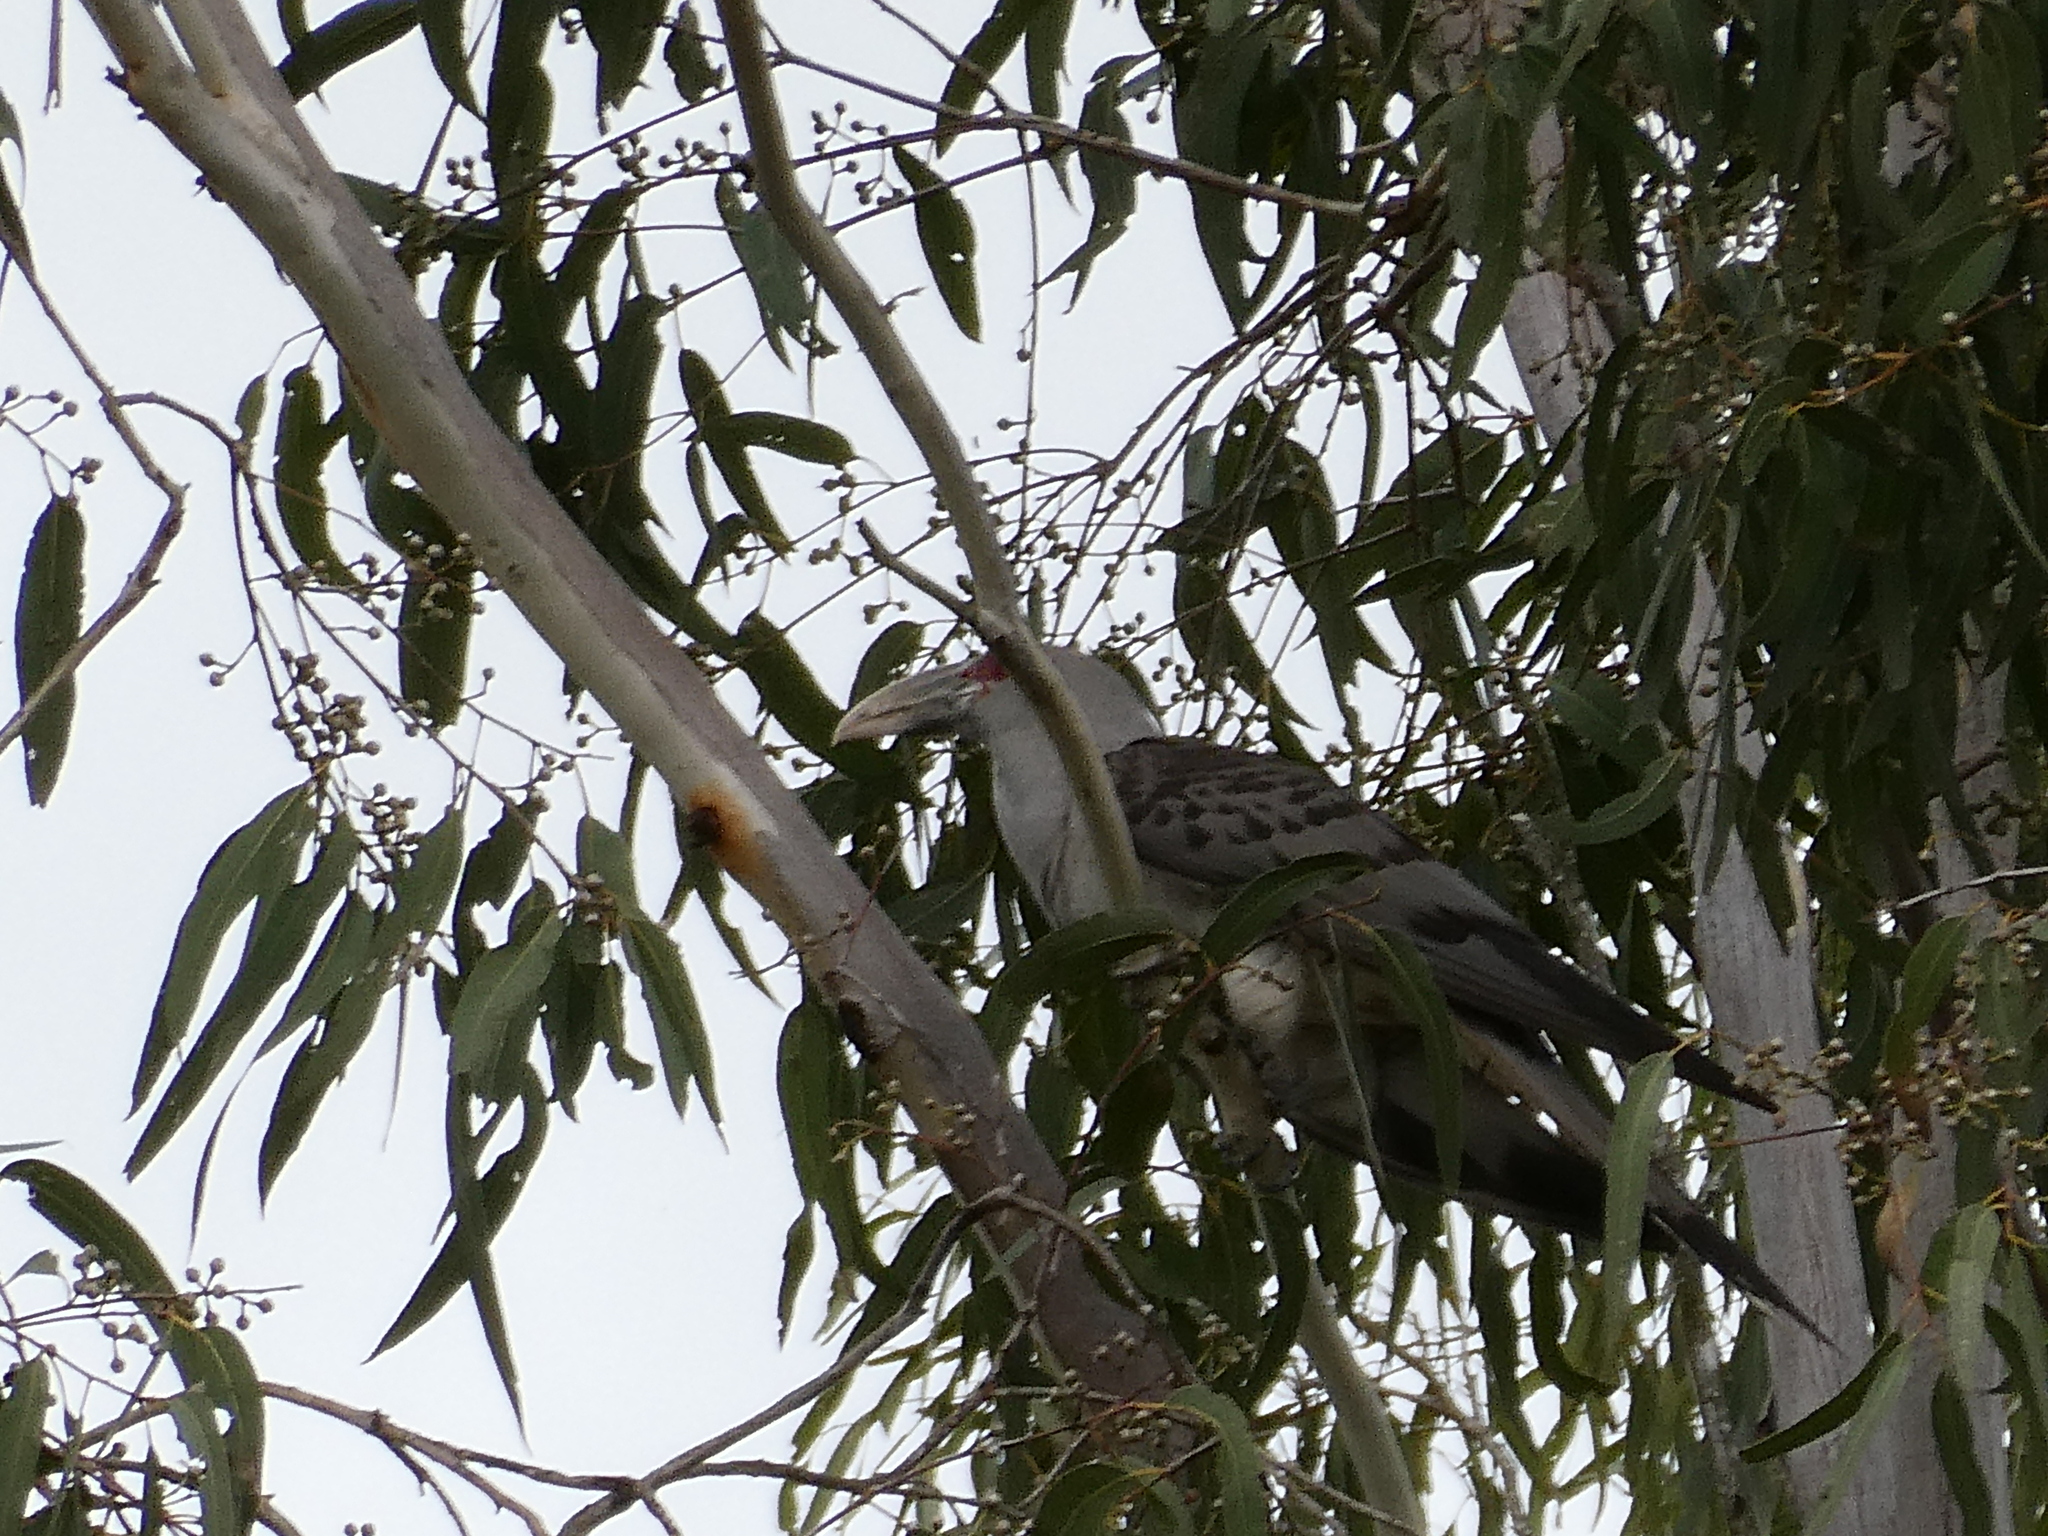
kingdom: Animalia
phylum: Chordata
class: Aves
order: Cuculiformes
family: Cuculidae
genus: Scythrops
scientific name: Scythrops novaehollandiae
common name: Channel-billed cuckoo
